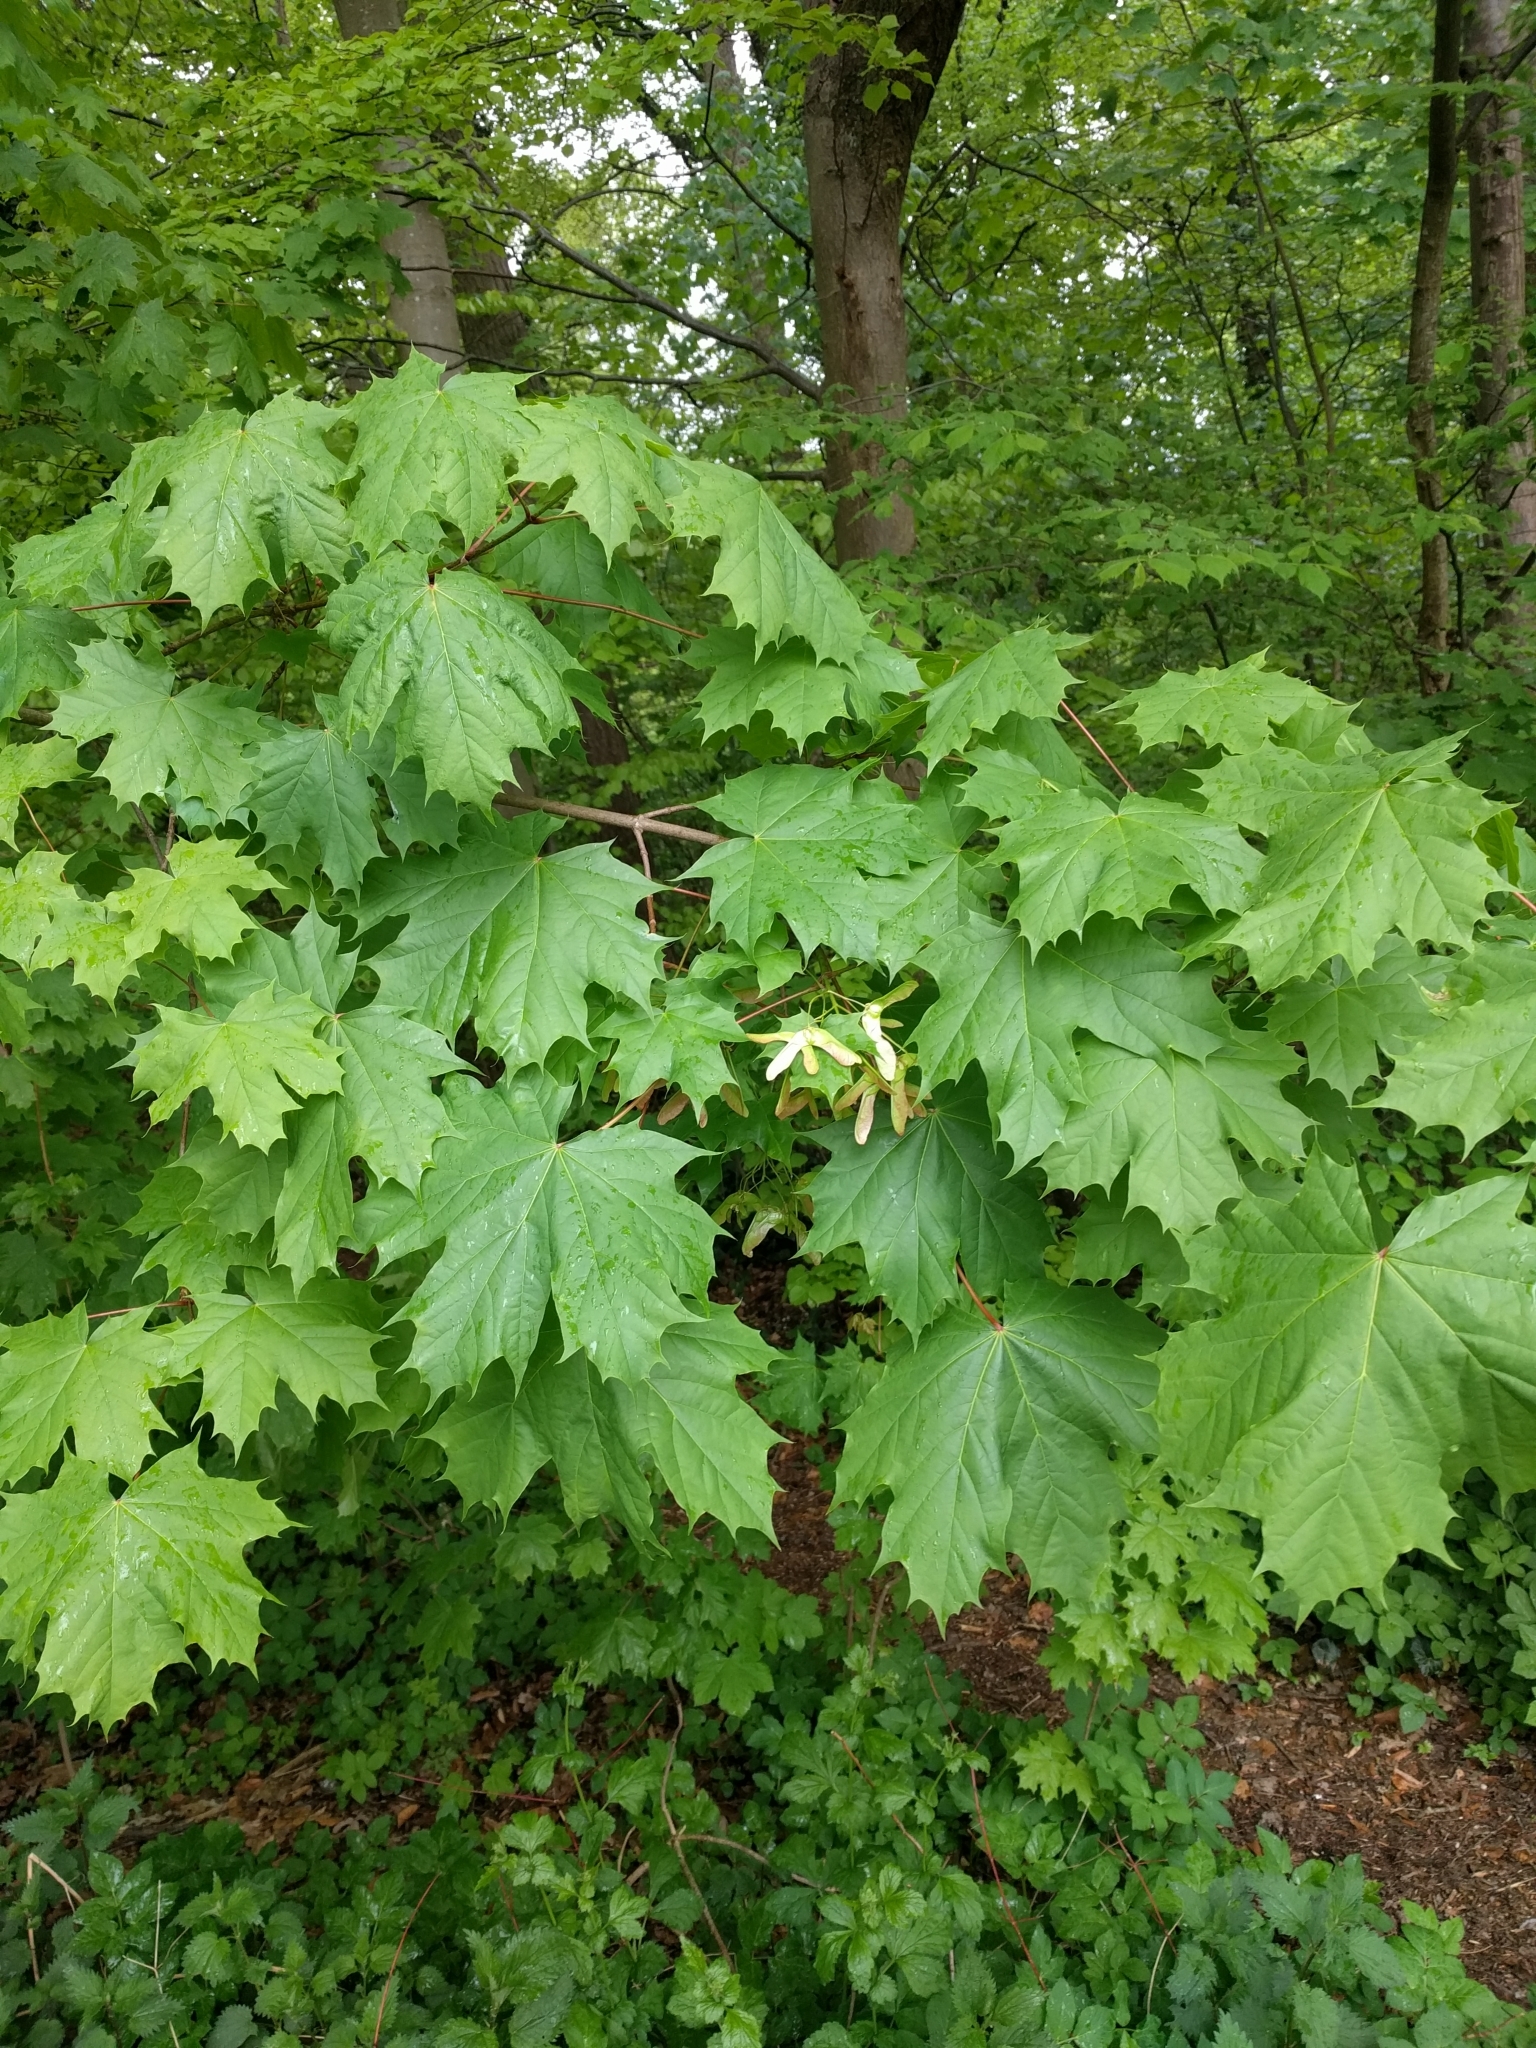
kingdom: Plantae
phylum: Tracheophyta
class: Magnoliopsida
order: Sapindales
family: Sapindaceae
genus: Acer
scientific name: Acer platanoides
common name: Norway maple
